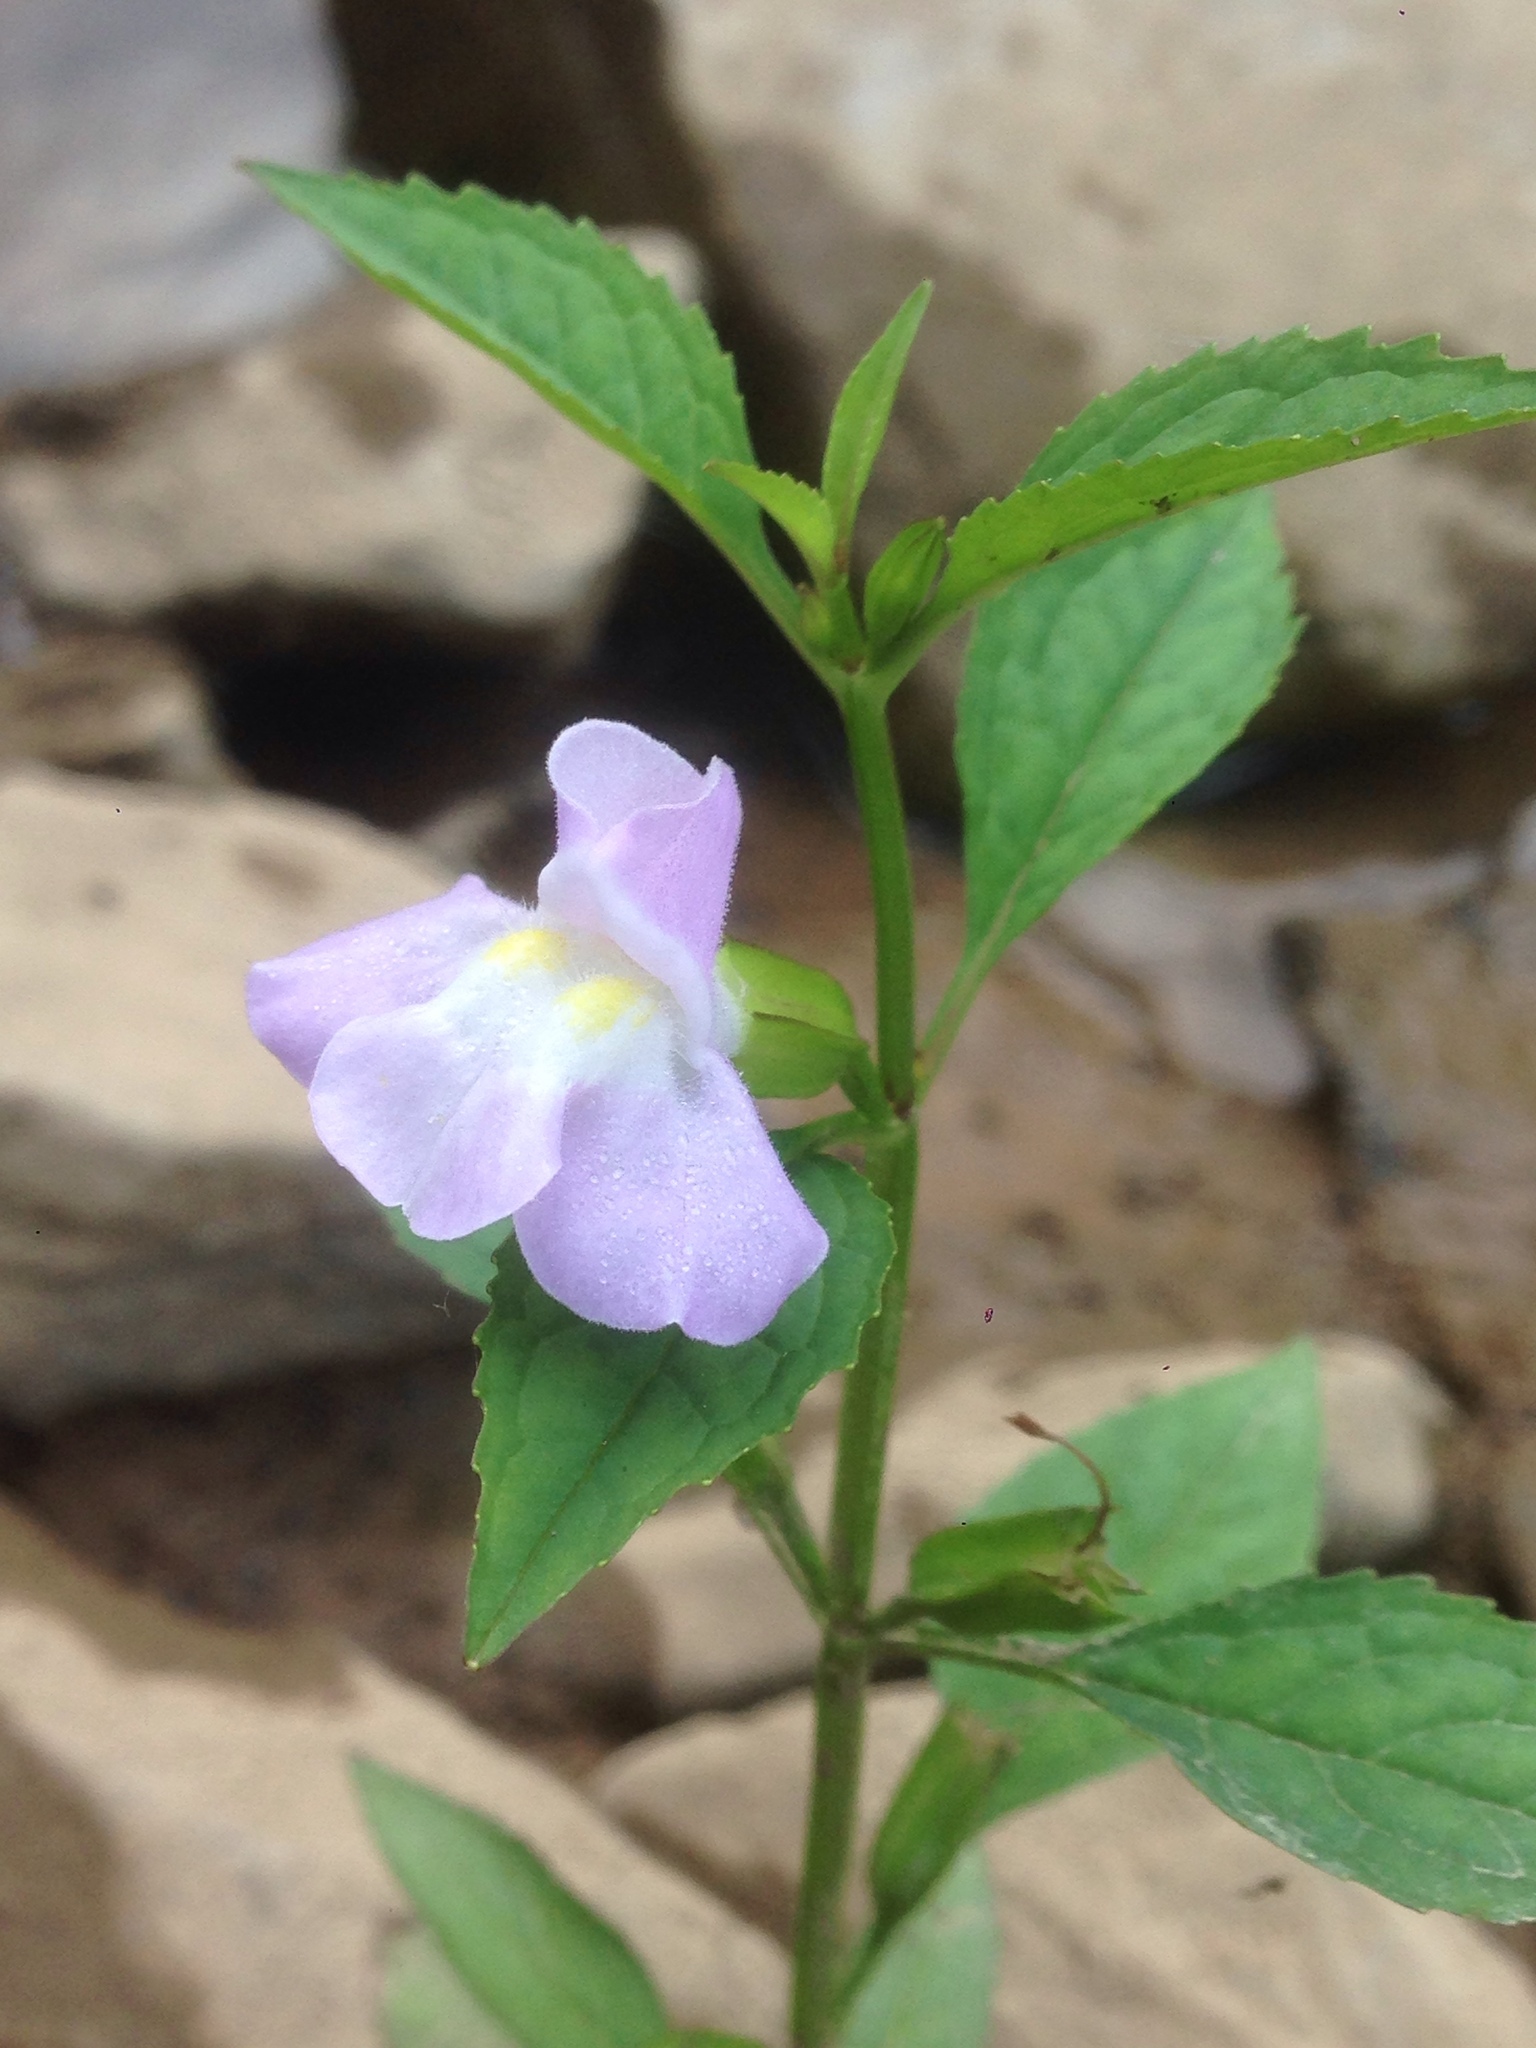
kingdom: Plantae
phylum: Tracheophyta
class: Magnoliopsida
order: Lamiales
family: Phrymaceae
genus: Mimulus
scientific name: Mimulus alatus
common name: Sharp-wing monkey-flower
